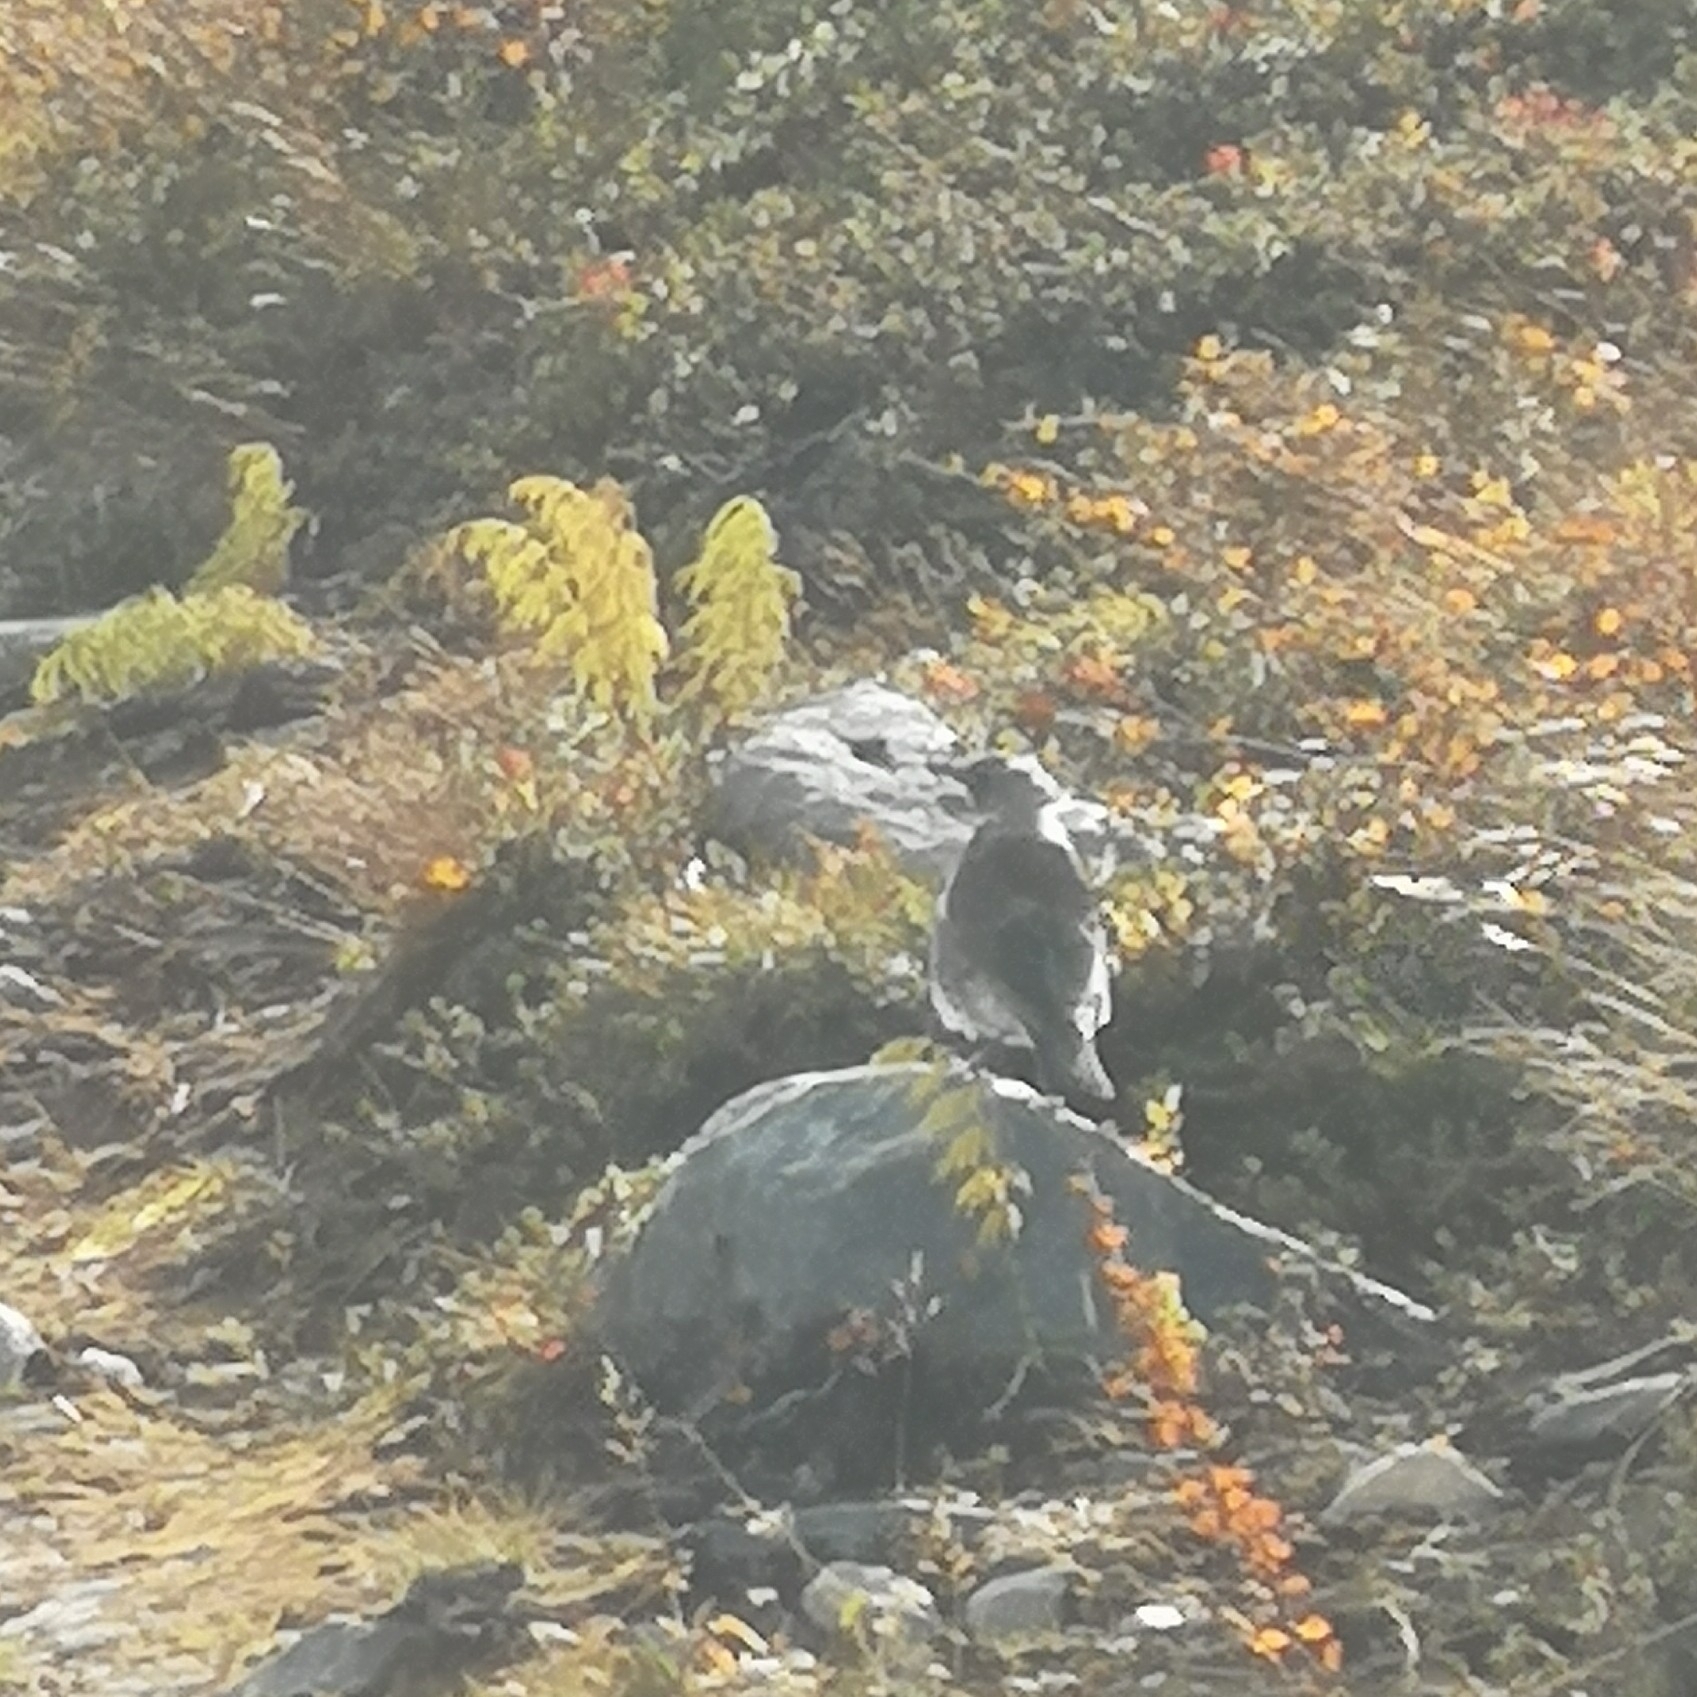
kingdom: Animalia
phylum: Chordata
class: Aves
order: Passeriformes
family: Turdidae
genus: Turdus
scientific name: Turdus pilaris
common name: Fieldfare
